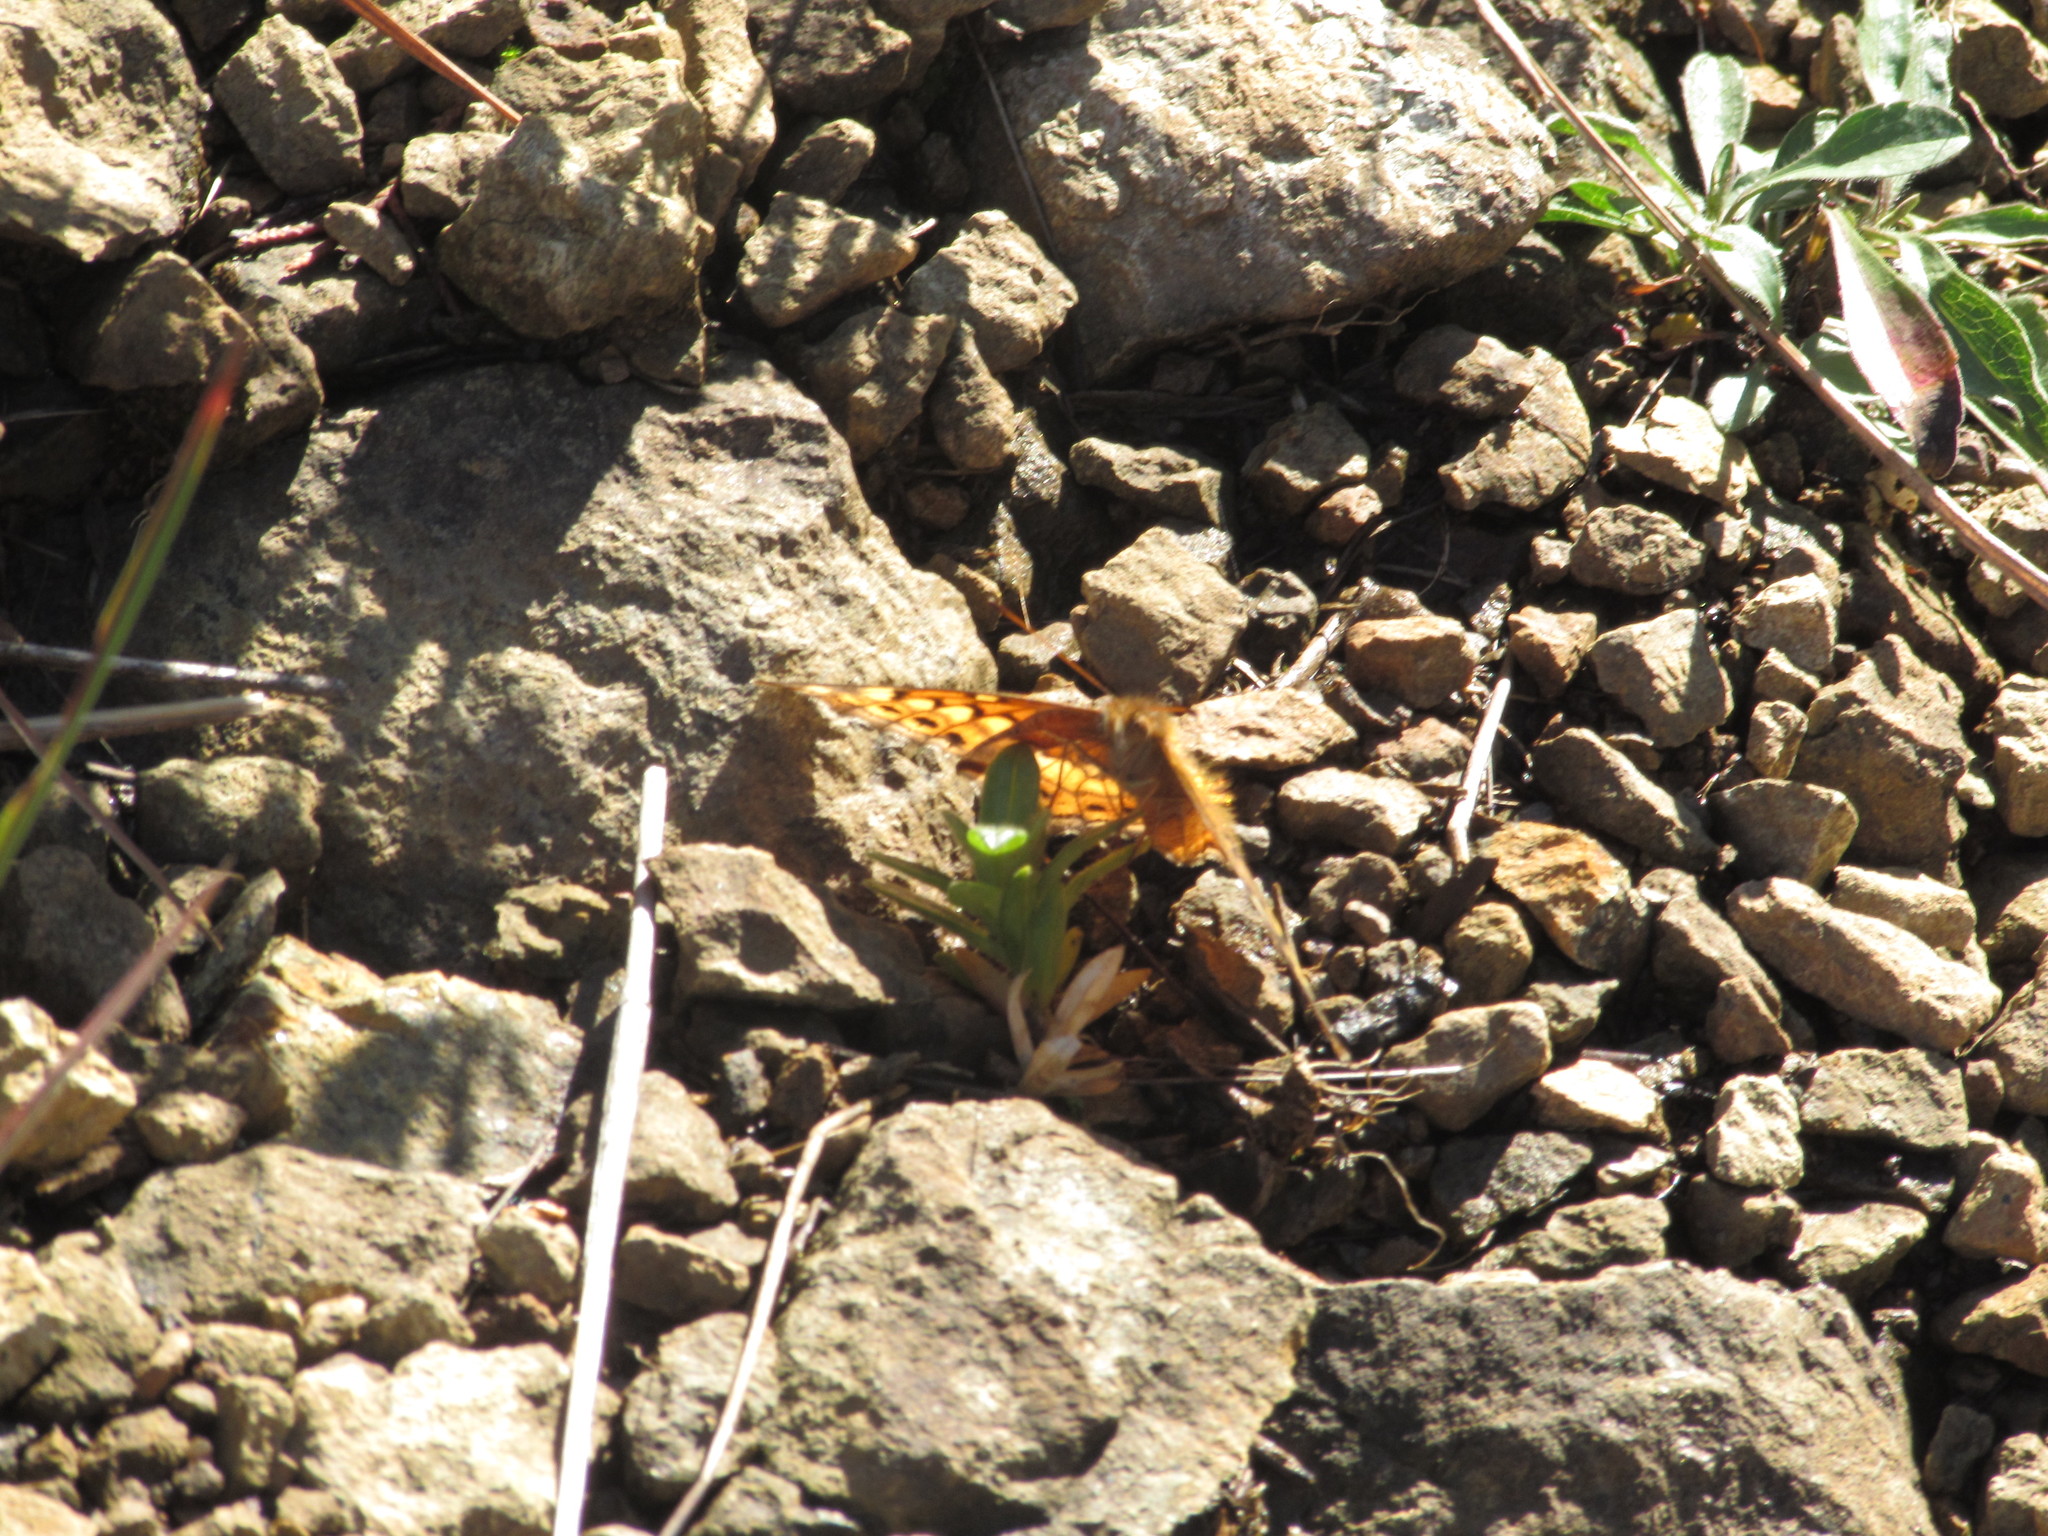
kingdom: Animalia
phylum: Arthropoda
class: Insecta
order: Lepidoptera
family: Nymphalidae
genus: Euptoieta
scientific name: Euptoieta claudia
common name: Variegated fritillary
